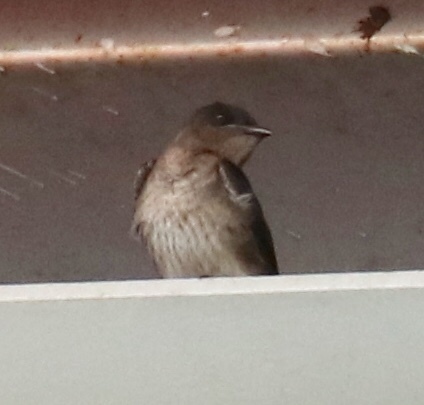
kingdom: Animalia
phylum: Chordata
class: Aves
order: Passeriformes
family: Hirundinidae
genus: Progne
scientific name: Progne chalybea
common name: Grey-breasted martin
